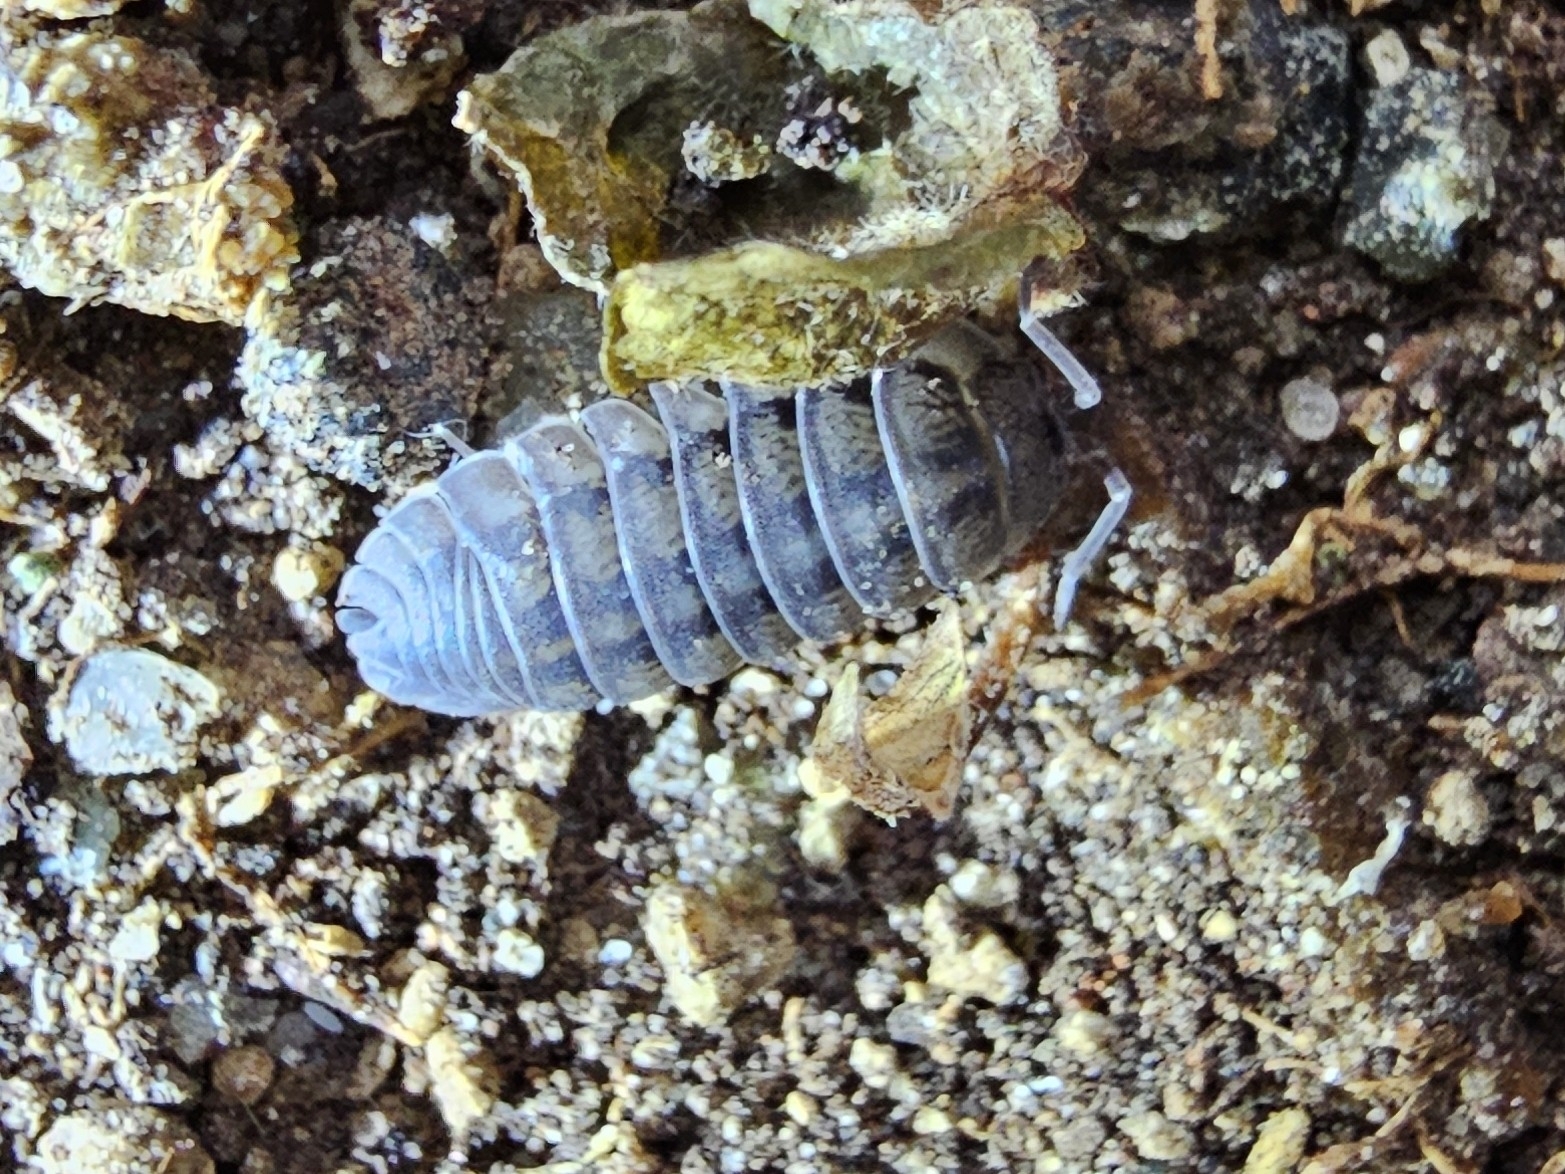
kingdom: Animalia
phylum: Arthropoda
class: Malacostraca
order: Isopoda
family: Armadillidiidae
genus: Armadillidium
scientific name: Armadillidium nasatum
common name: Isopod
